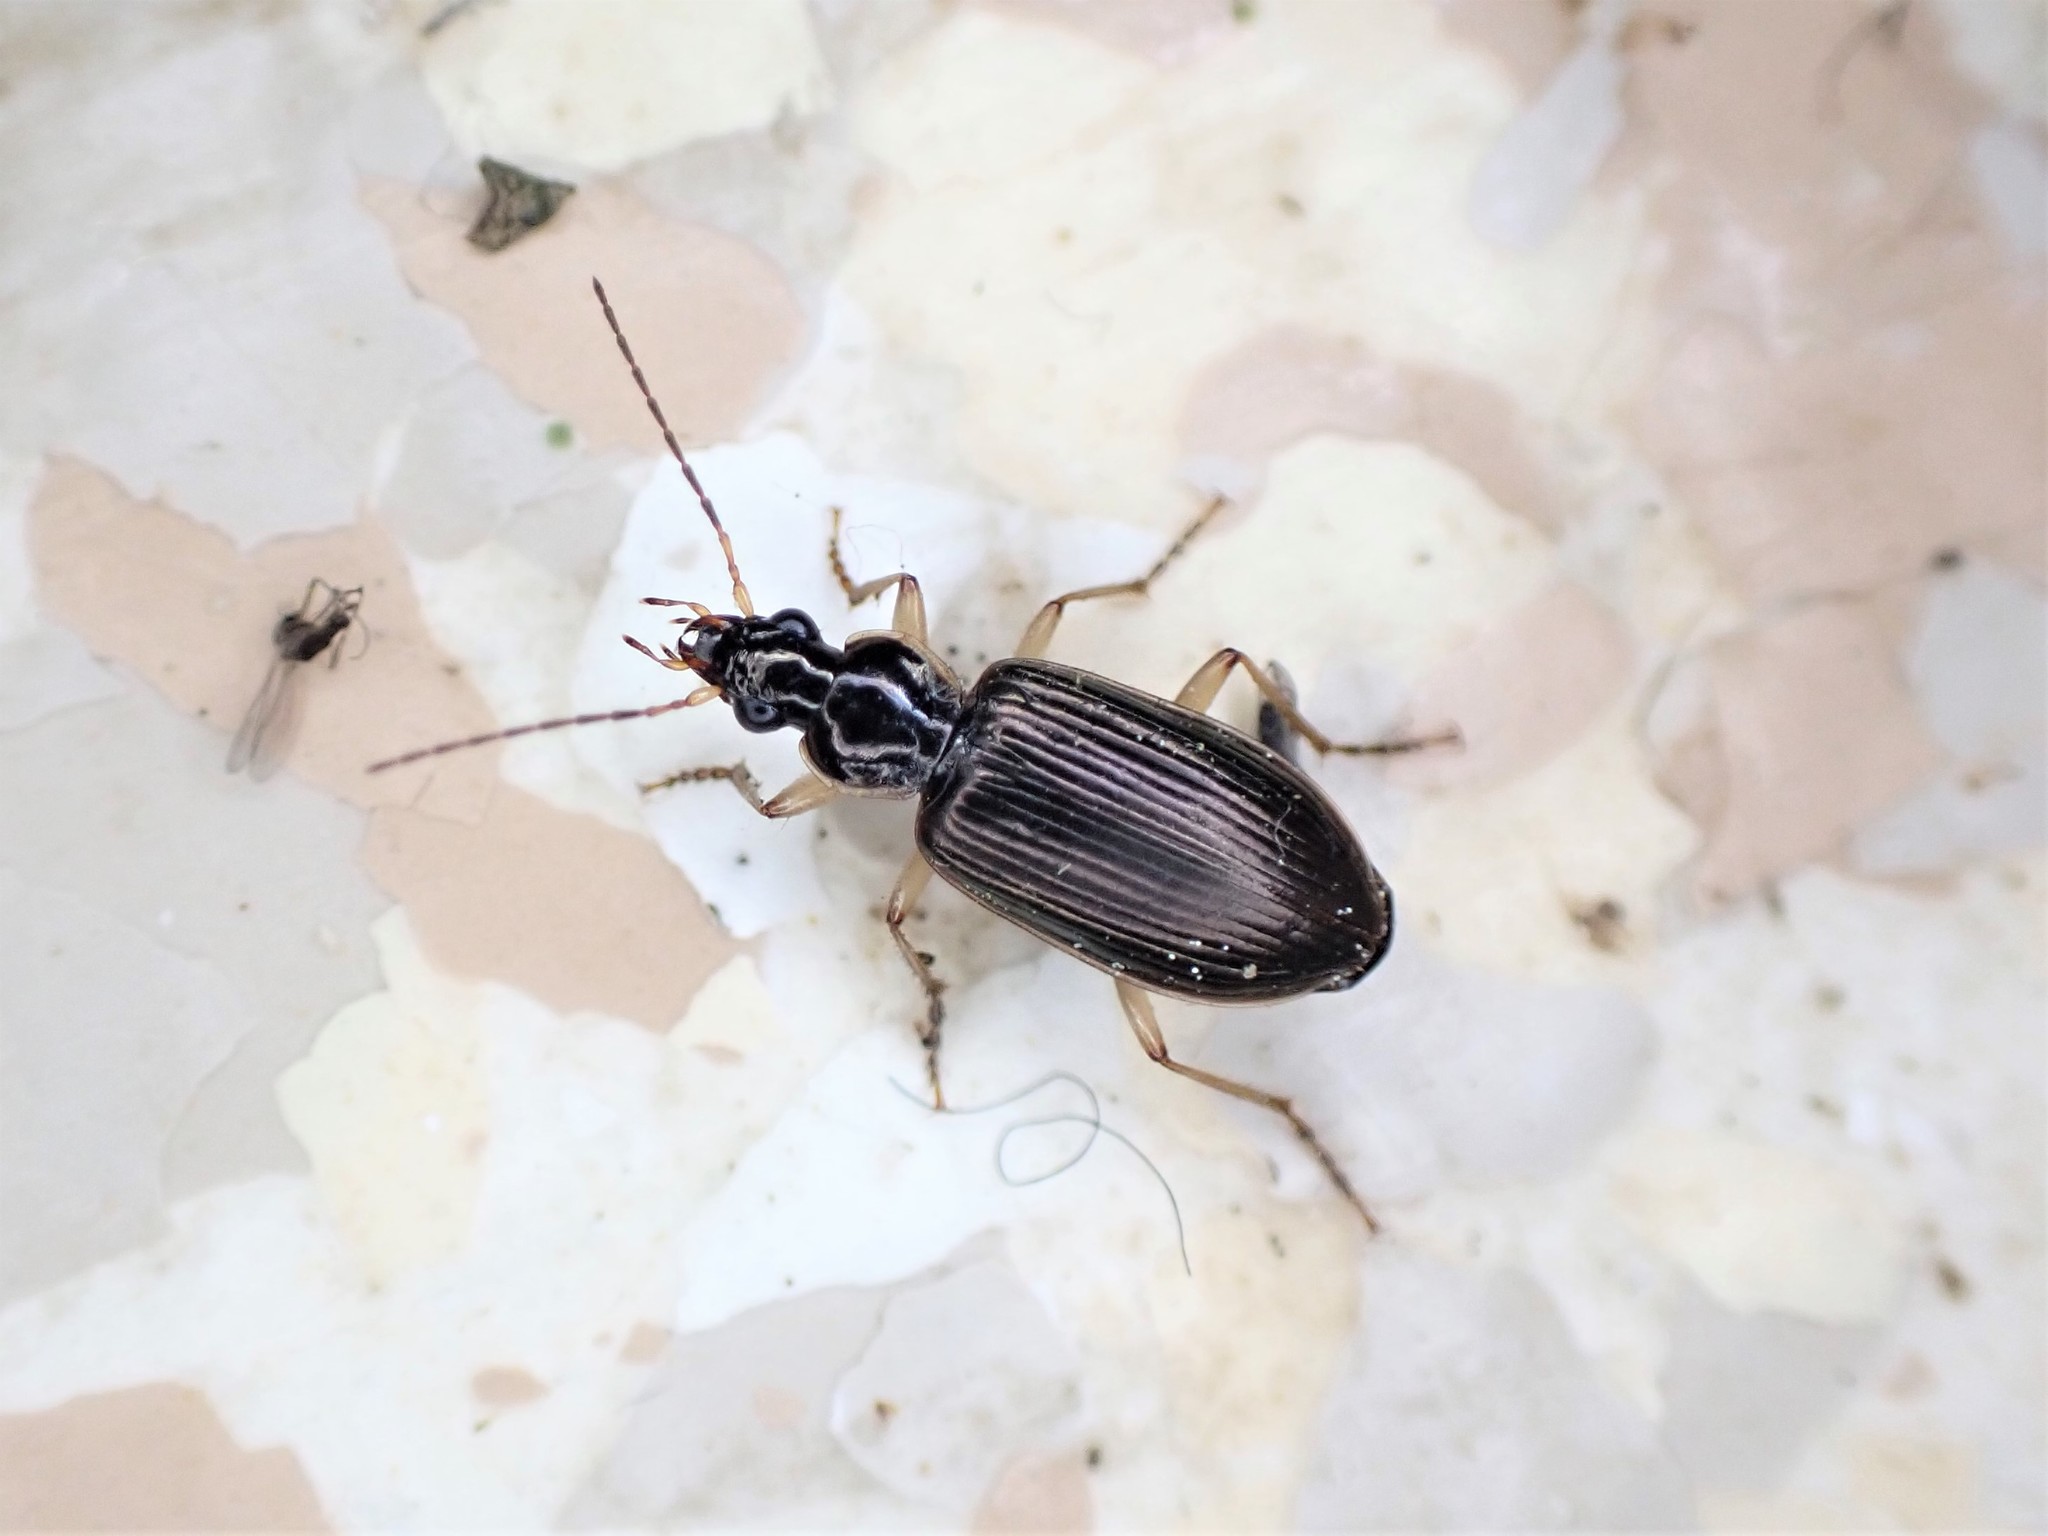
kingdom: Animalia
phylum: Arthropoda
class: Insecta
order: Coleoptera
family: Carabidae
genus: Notagonum
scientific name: Notagonum submetallicum
